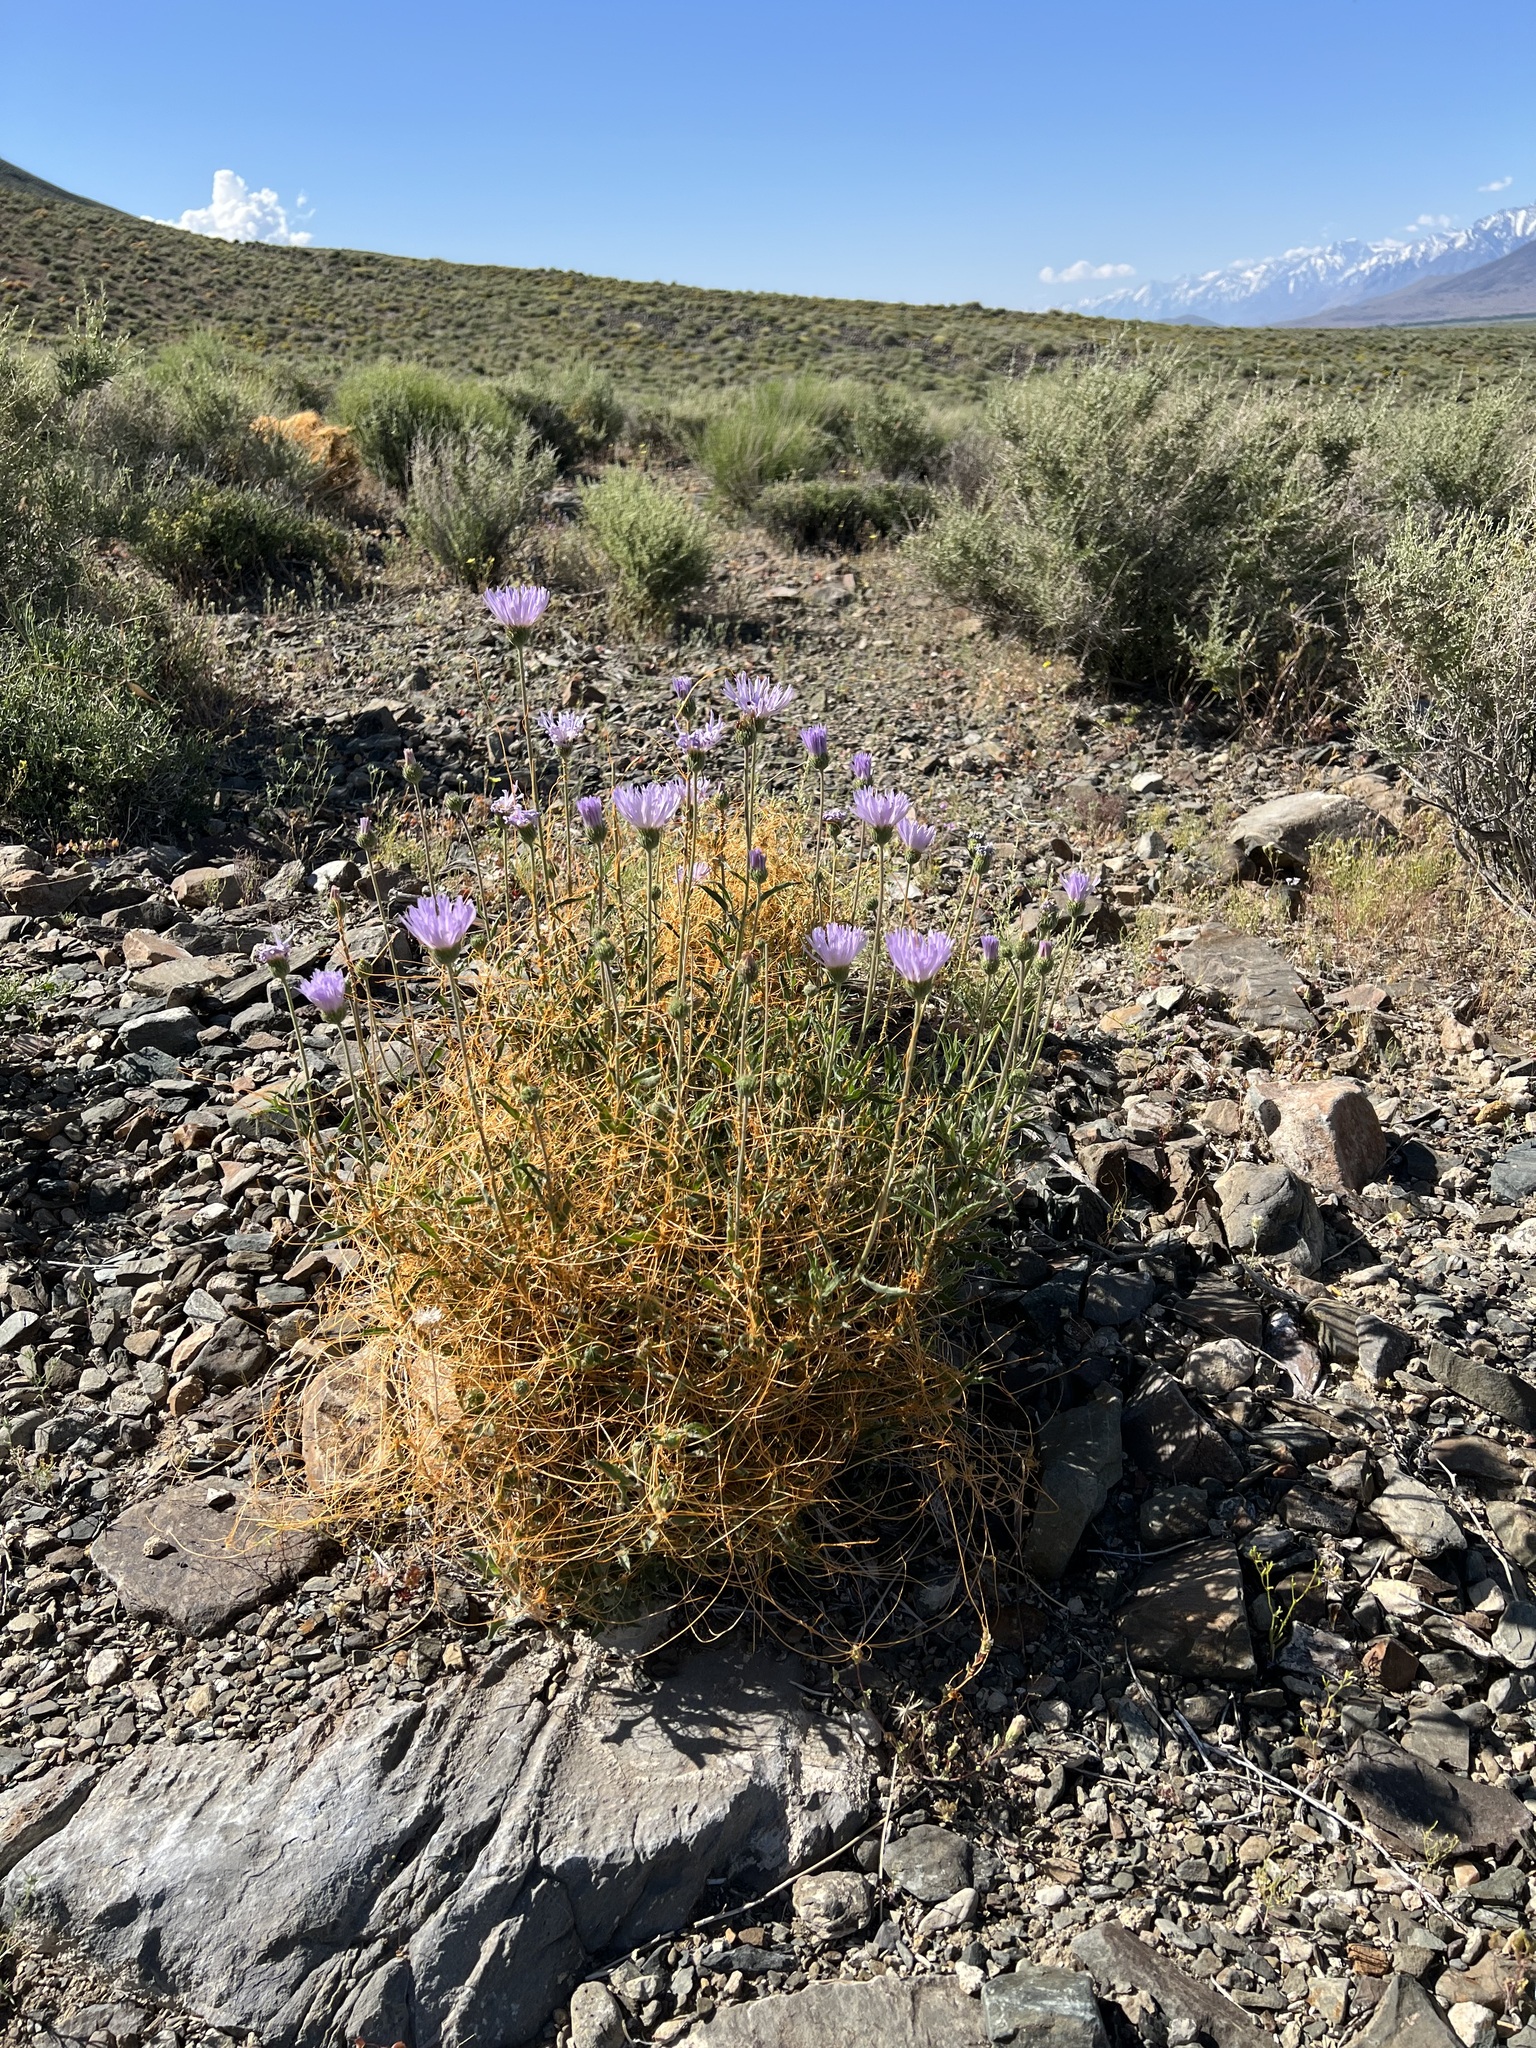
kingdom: Plantae
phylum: Tracheophyta
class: Magnoliopsida
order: Asterales
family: Asteraceae
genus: Xylorhiza
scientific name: Xylorhiza tortifolia
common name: Hurt-leaf woody-aster
